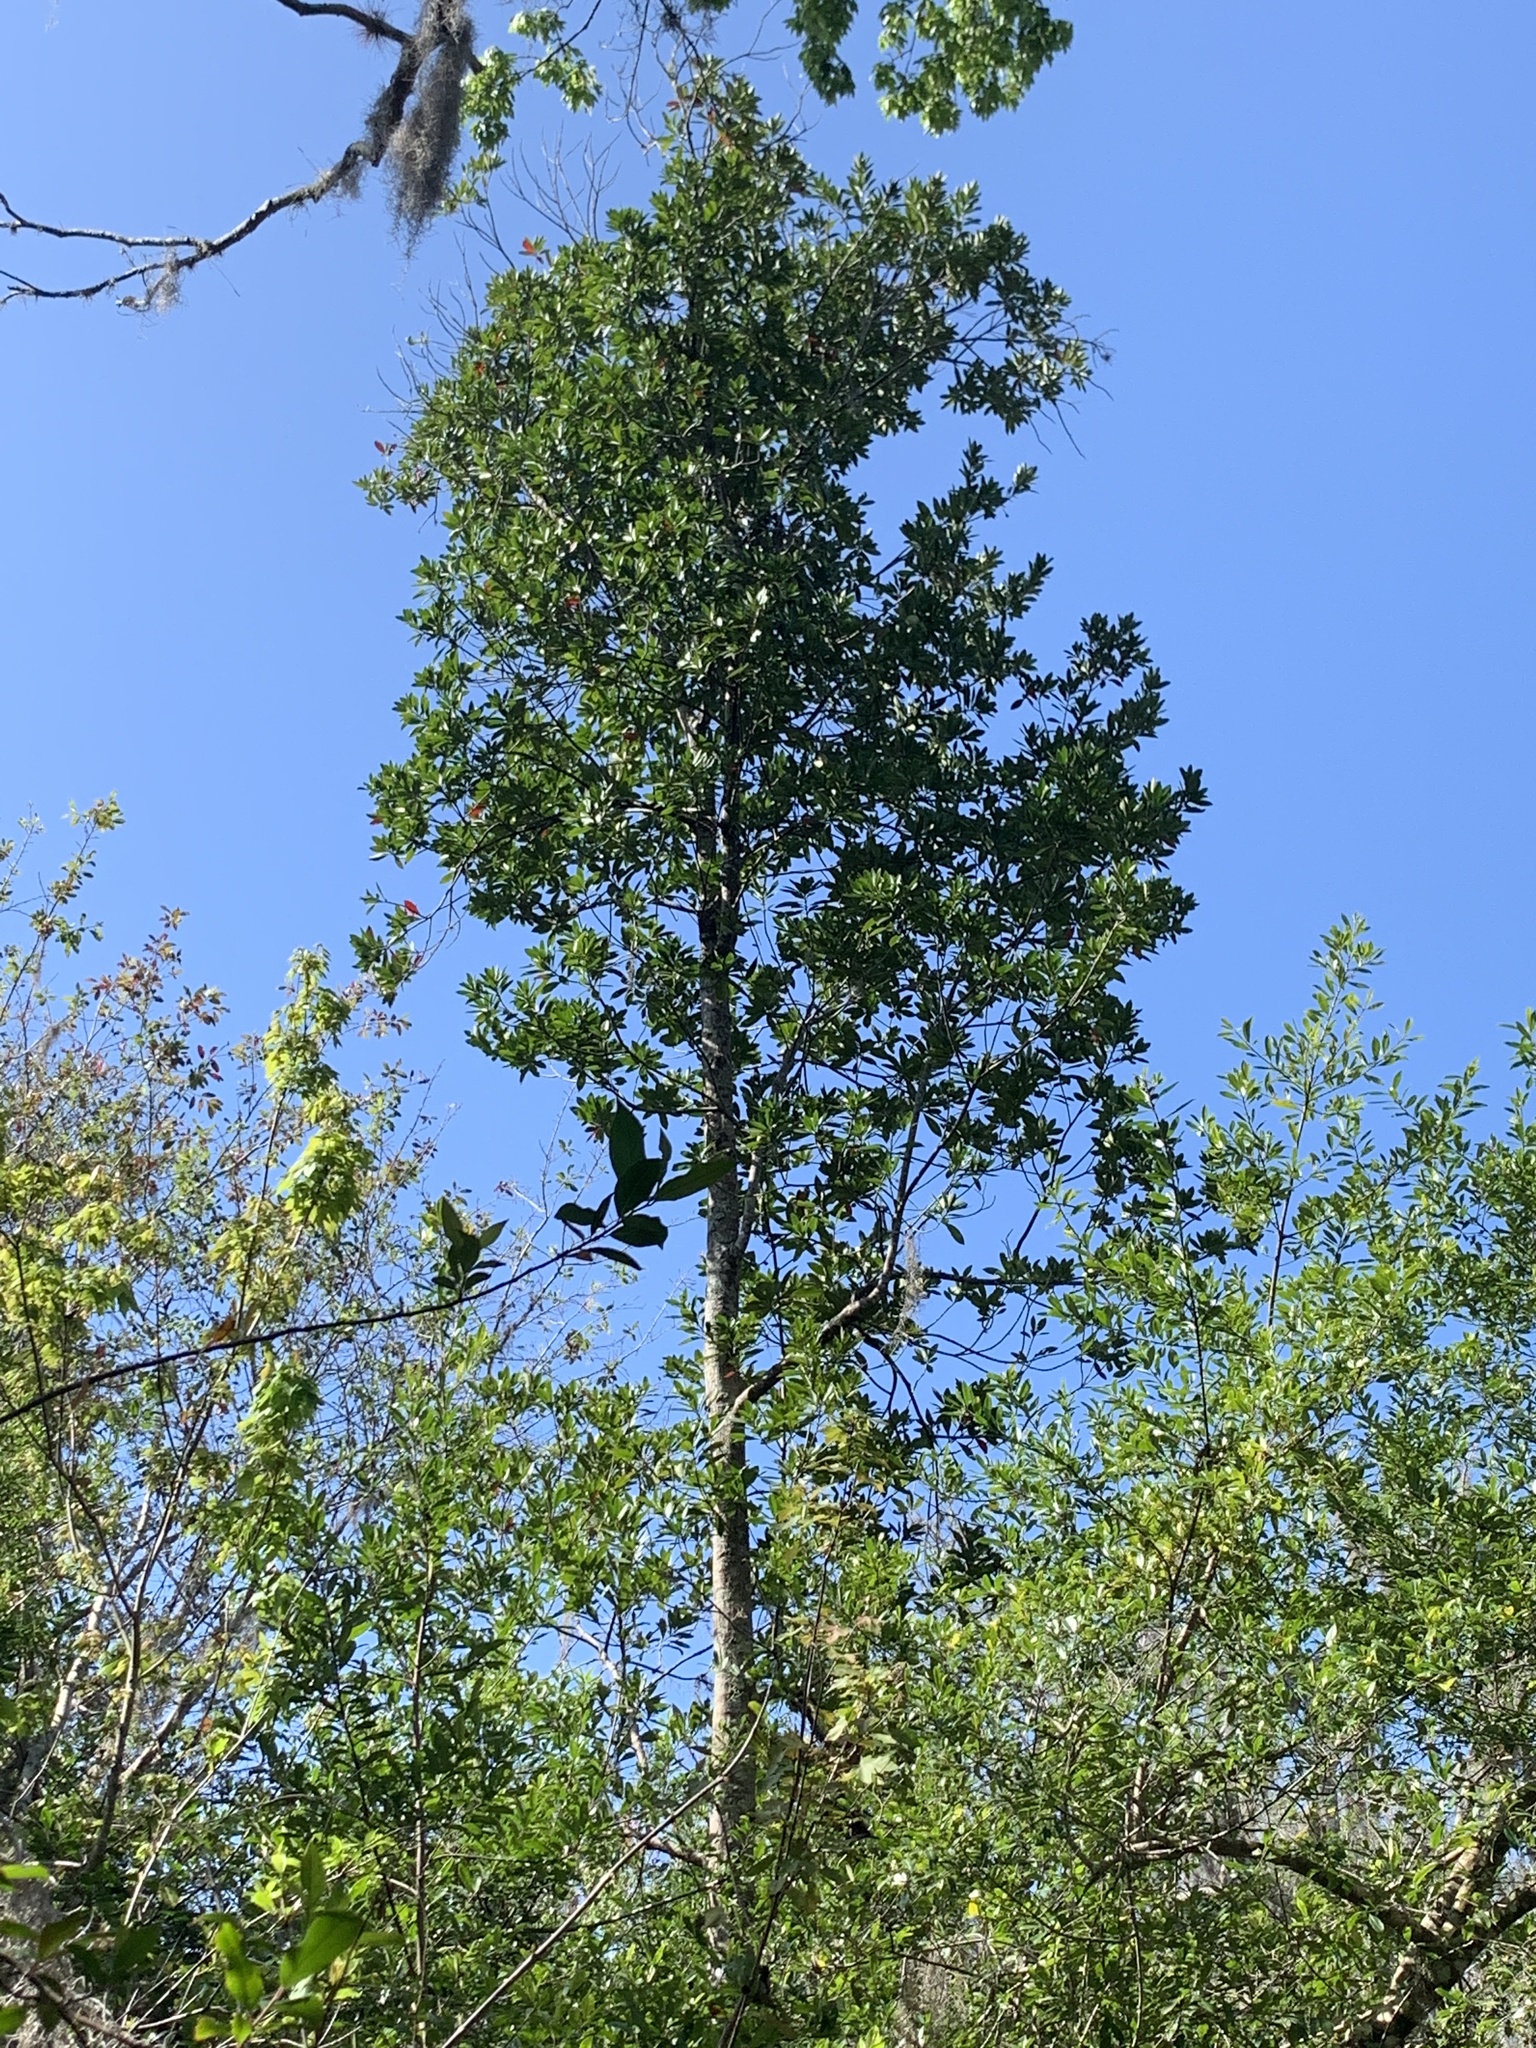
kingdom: Plantae
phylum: Tracheophyta
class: Magnoliopsida
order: Ericales
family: Theaceae
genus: Gordonia
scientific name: Gordonia lasianthus
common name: Loblolly bay
